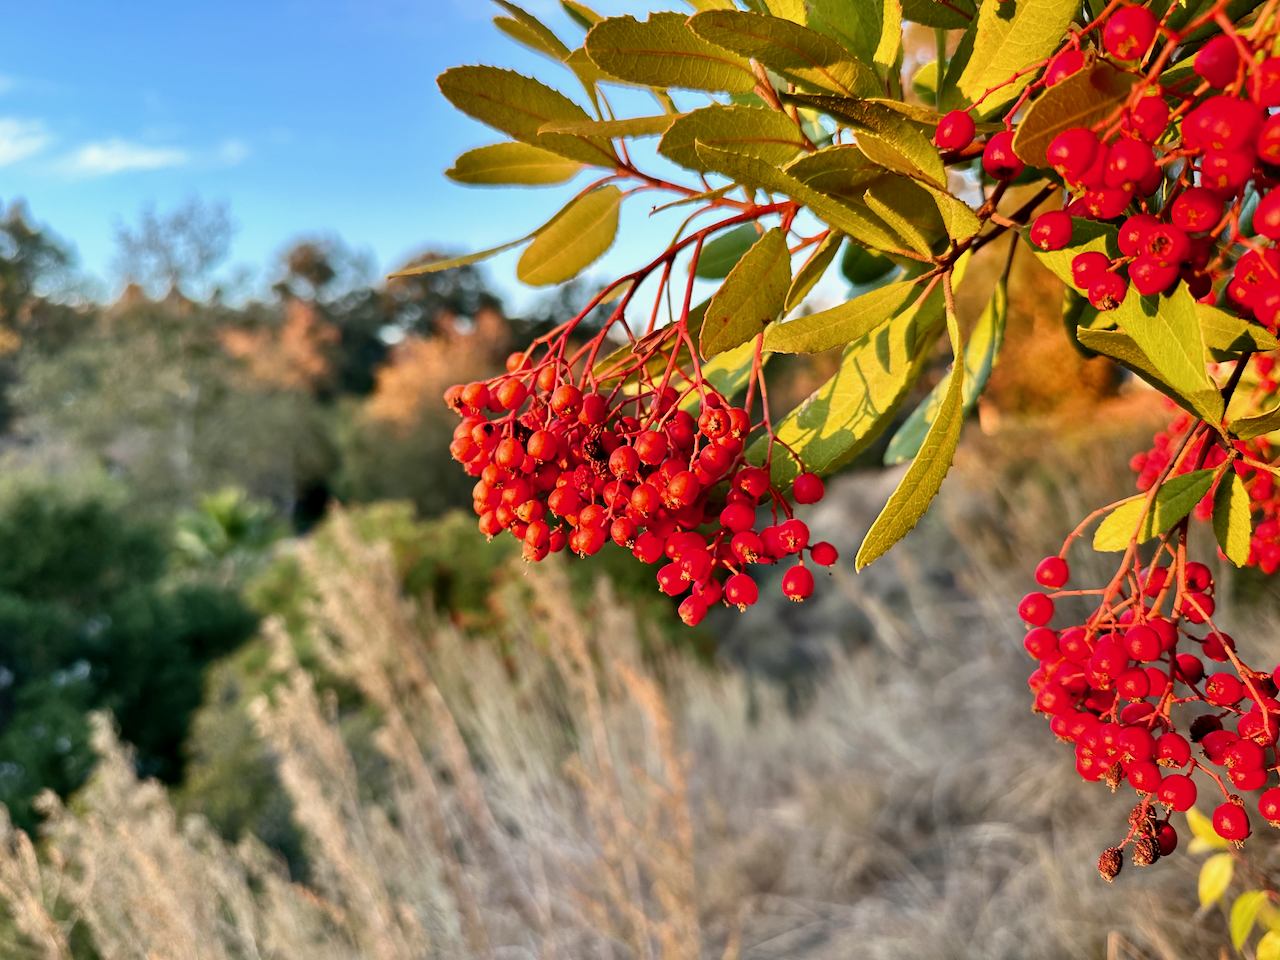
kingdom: Plantae
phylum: Tracheophyta
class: Magnoliopsida
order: Rosales
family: Rosaceae
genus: Heteromeles
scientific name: Heteromeles arbutifolia
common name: California-holly
